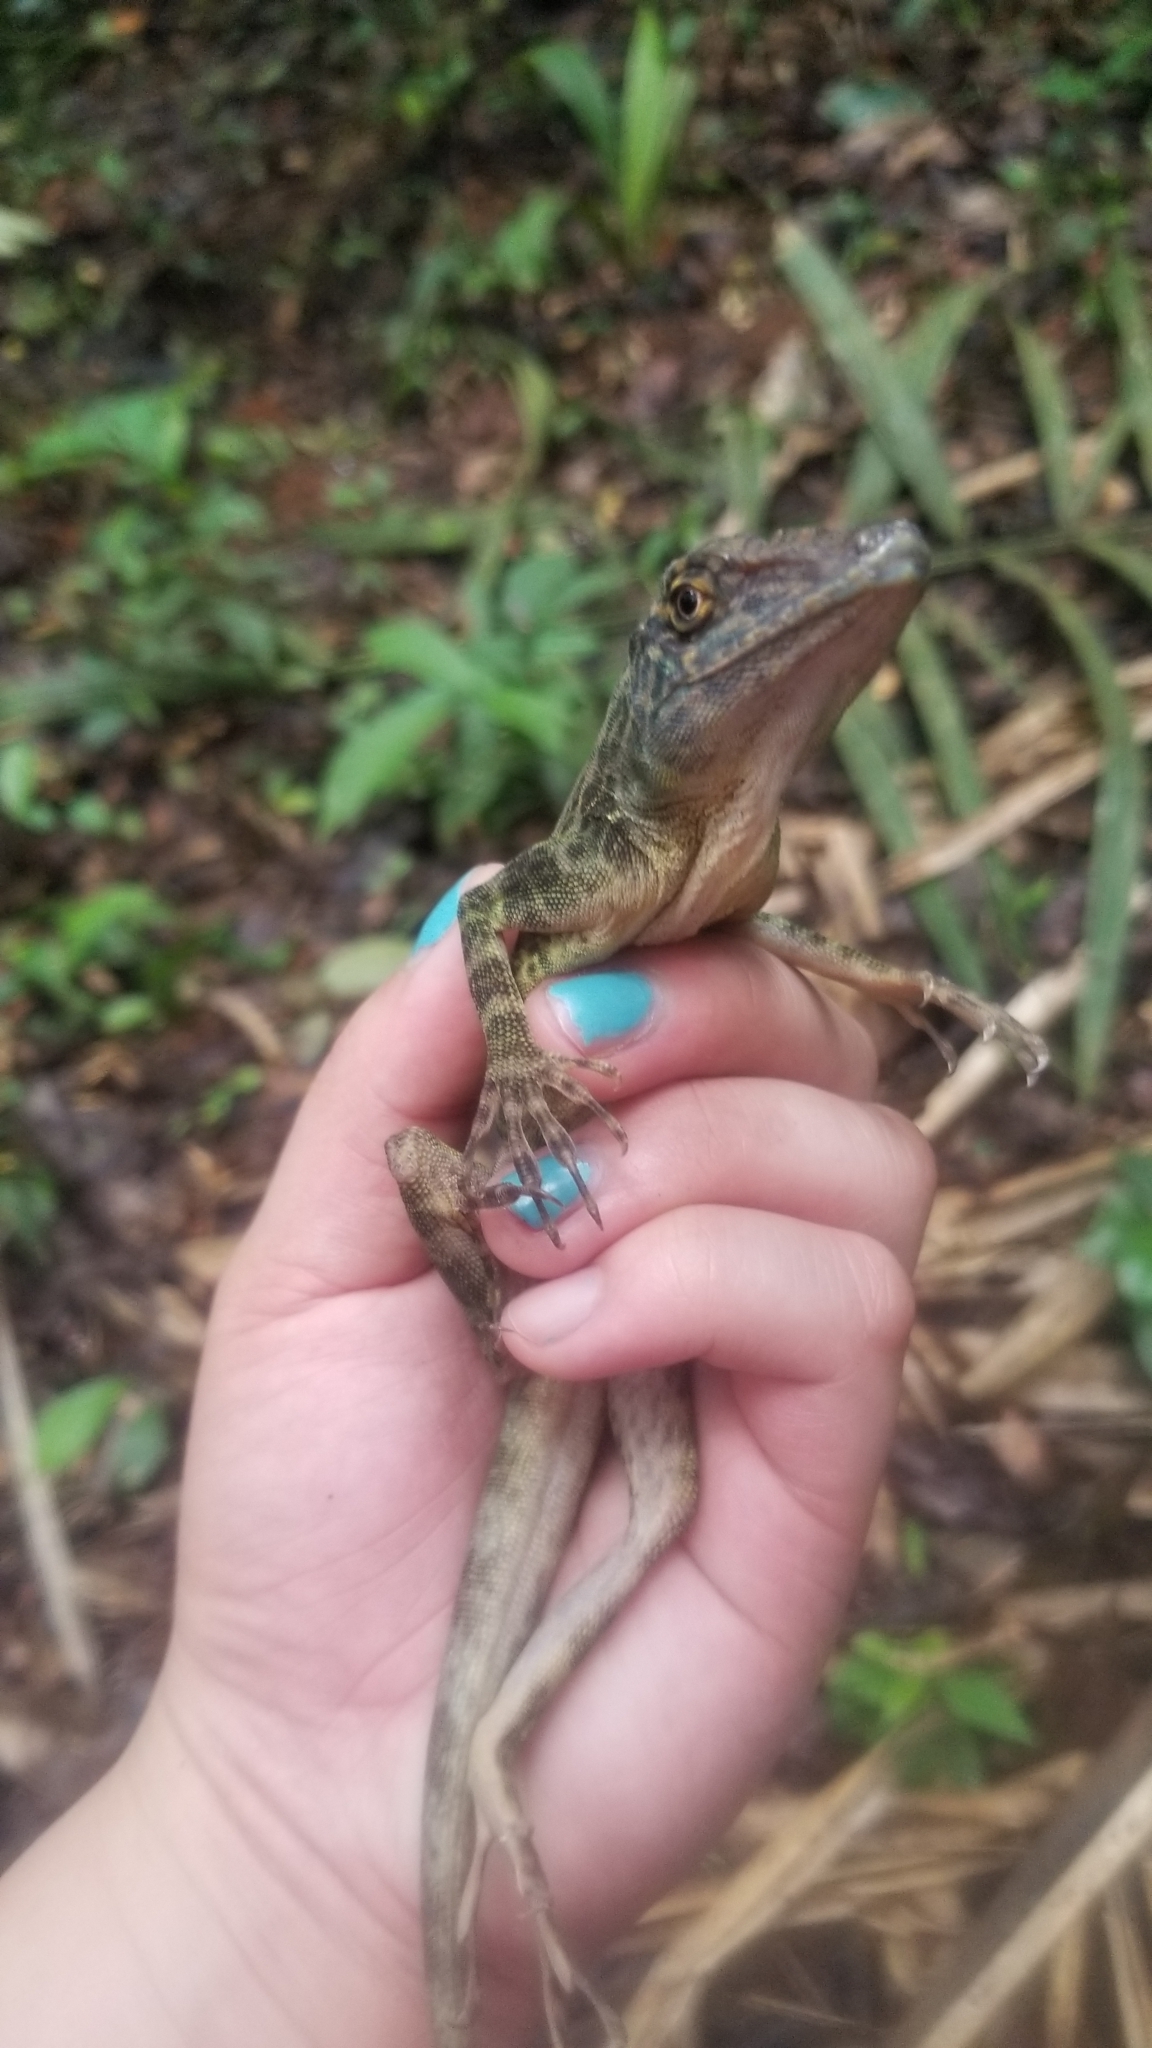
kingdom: Animalia
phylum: Chordata
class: Squamata
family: Dactyloidae
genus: Anolis
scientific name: Anolis frenatus
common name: Bridled anole
